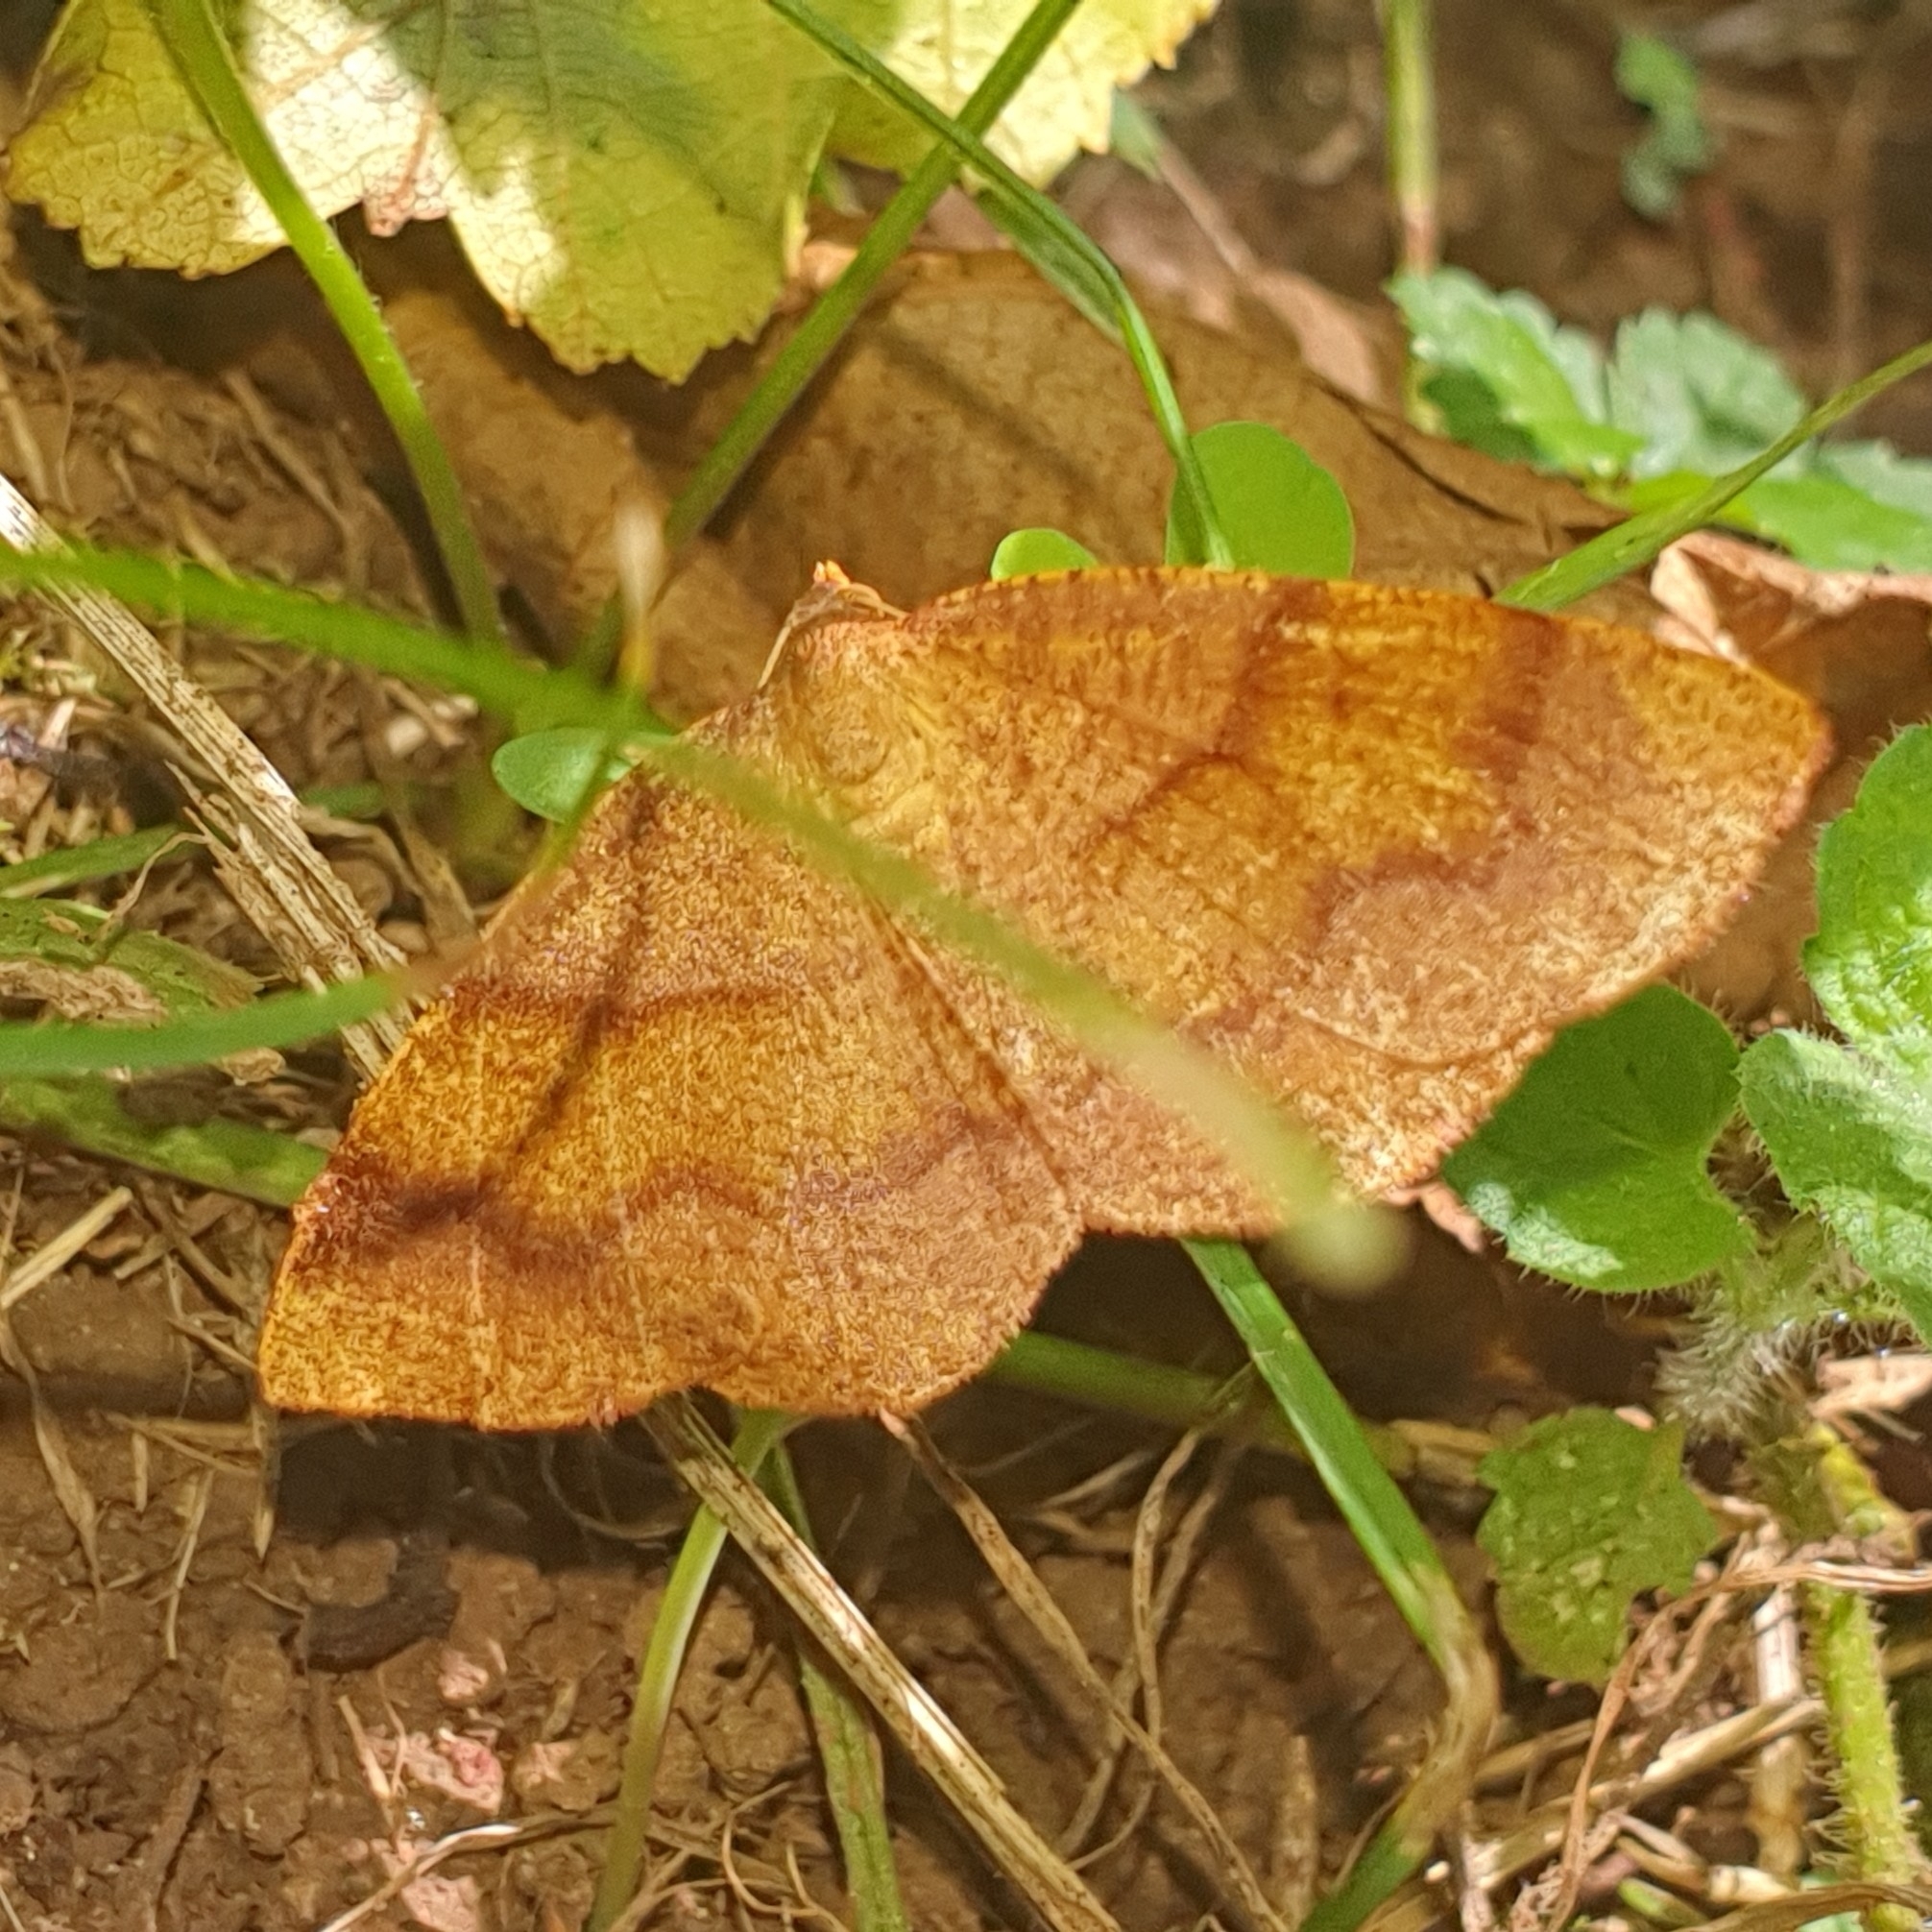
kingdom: Animalia
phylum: Arthropoda
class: Insecta
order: Lepidoptera
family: Geometridae
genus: Plagodis
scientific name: Plagodis pulveraria
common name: Barred umber
